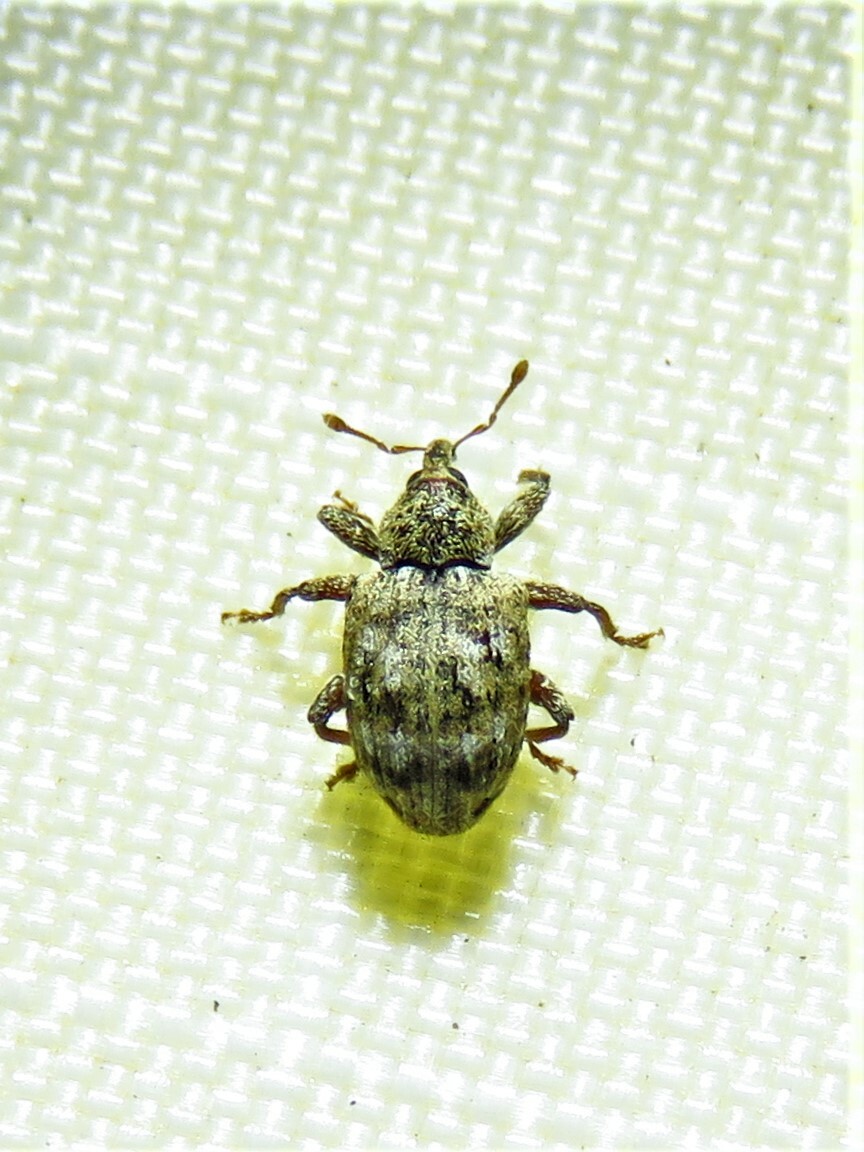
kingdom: Animalia
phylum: Arthropoda
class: Insecta
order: Coleoptera
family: Curculionidae
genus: Conotrachelus
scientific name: Conotrachelus recessus
